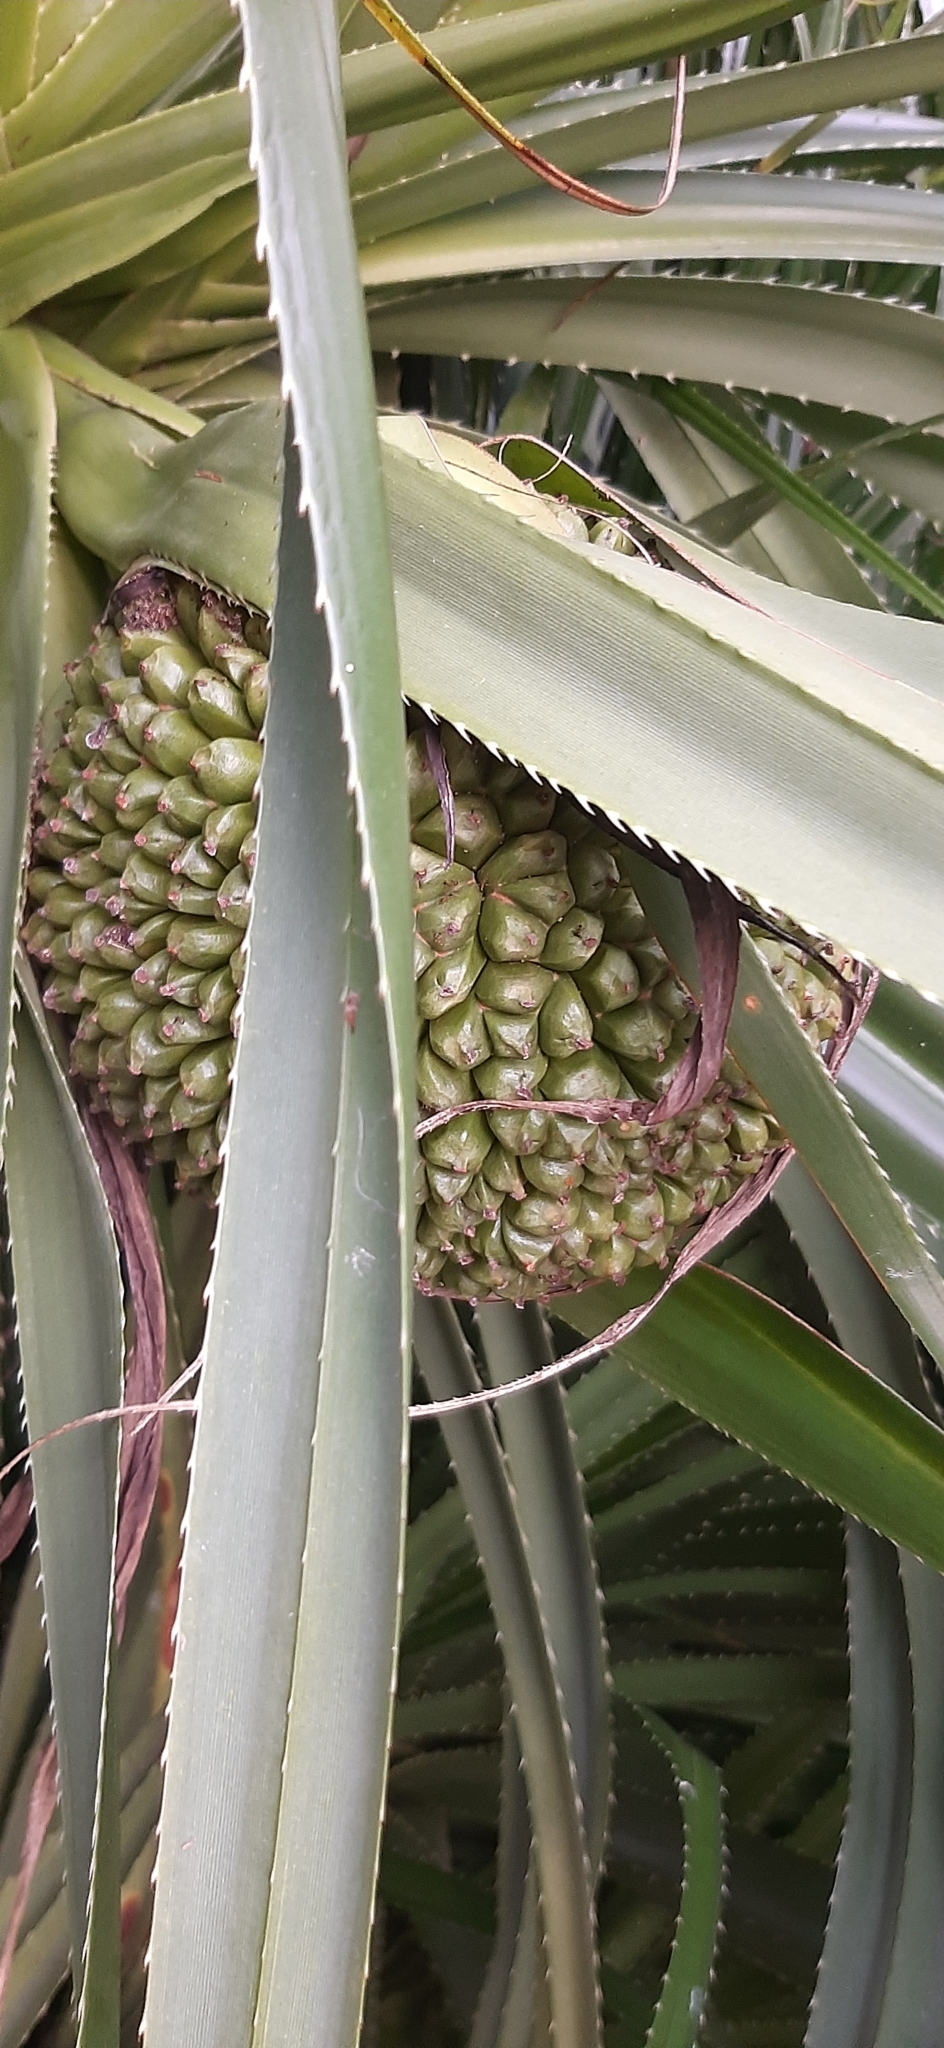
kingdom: Plantae
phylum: Tracheophyta
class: Liliopsida
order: Pandanales
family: Pandanaceae
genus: Pandanus
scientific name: Pandanus odorifer
